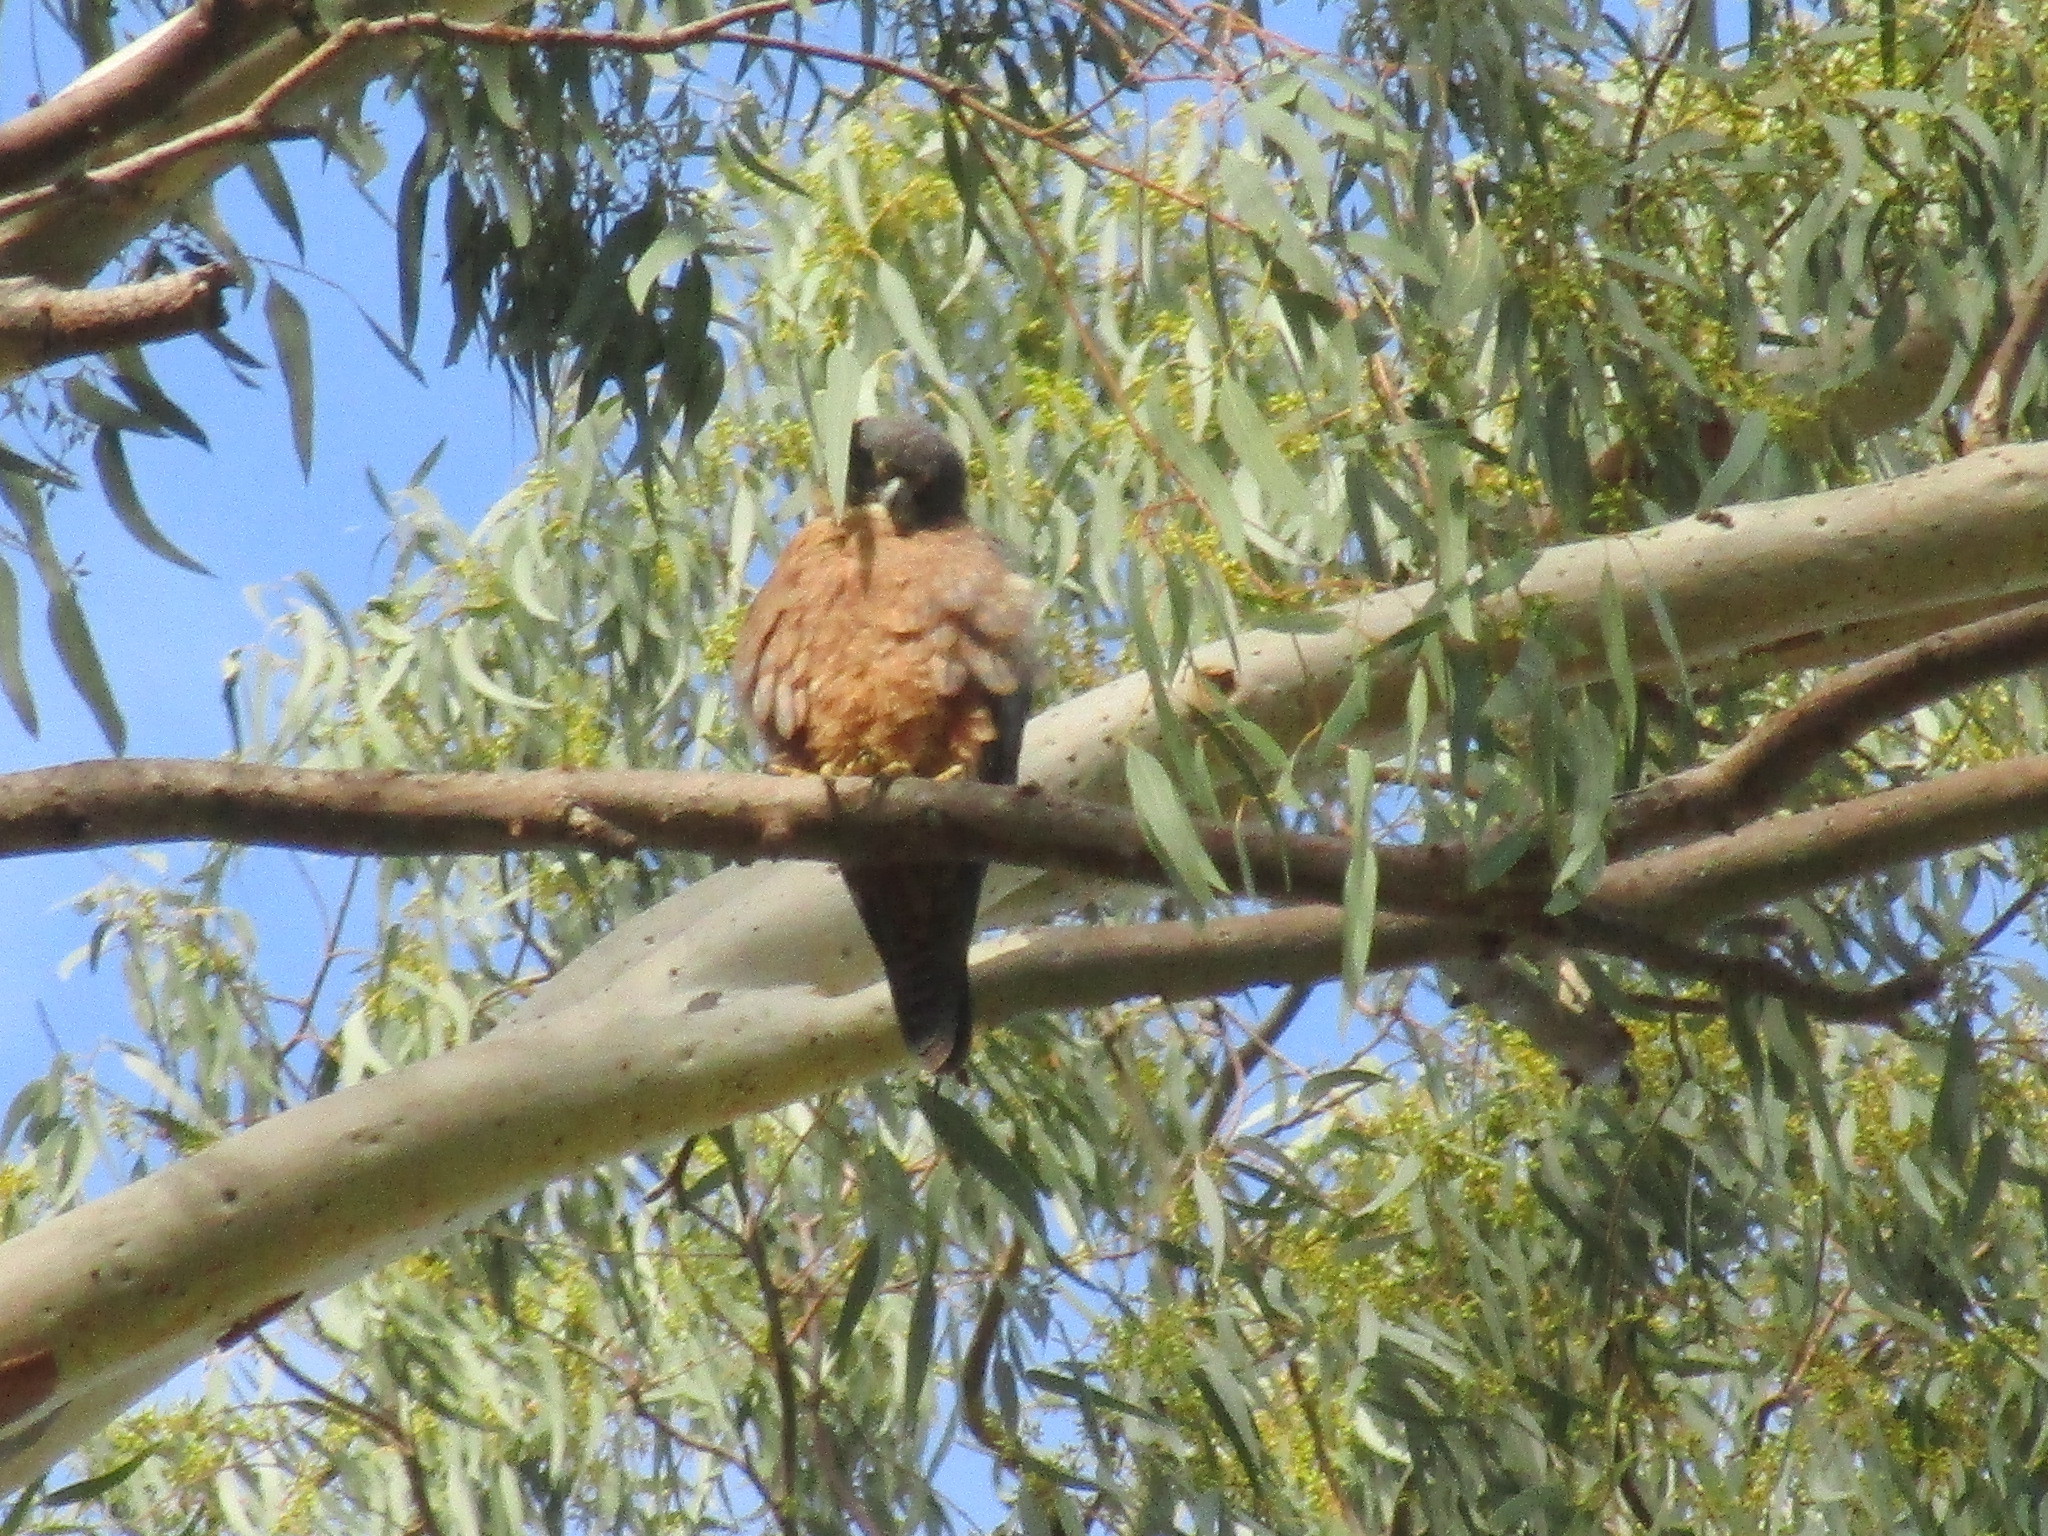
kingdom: Animalia
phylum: Chordata
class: Aves
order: Falconiformes
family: Falconidae
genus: Falco
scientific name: Falco longipennis
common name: Australian hobby
